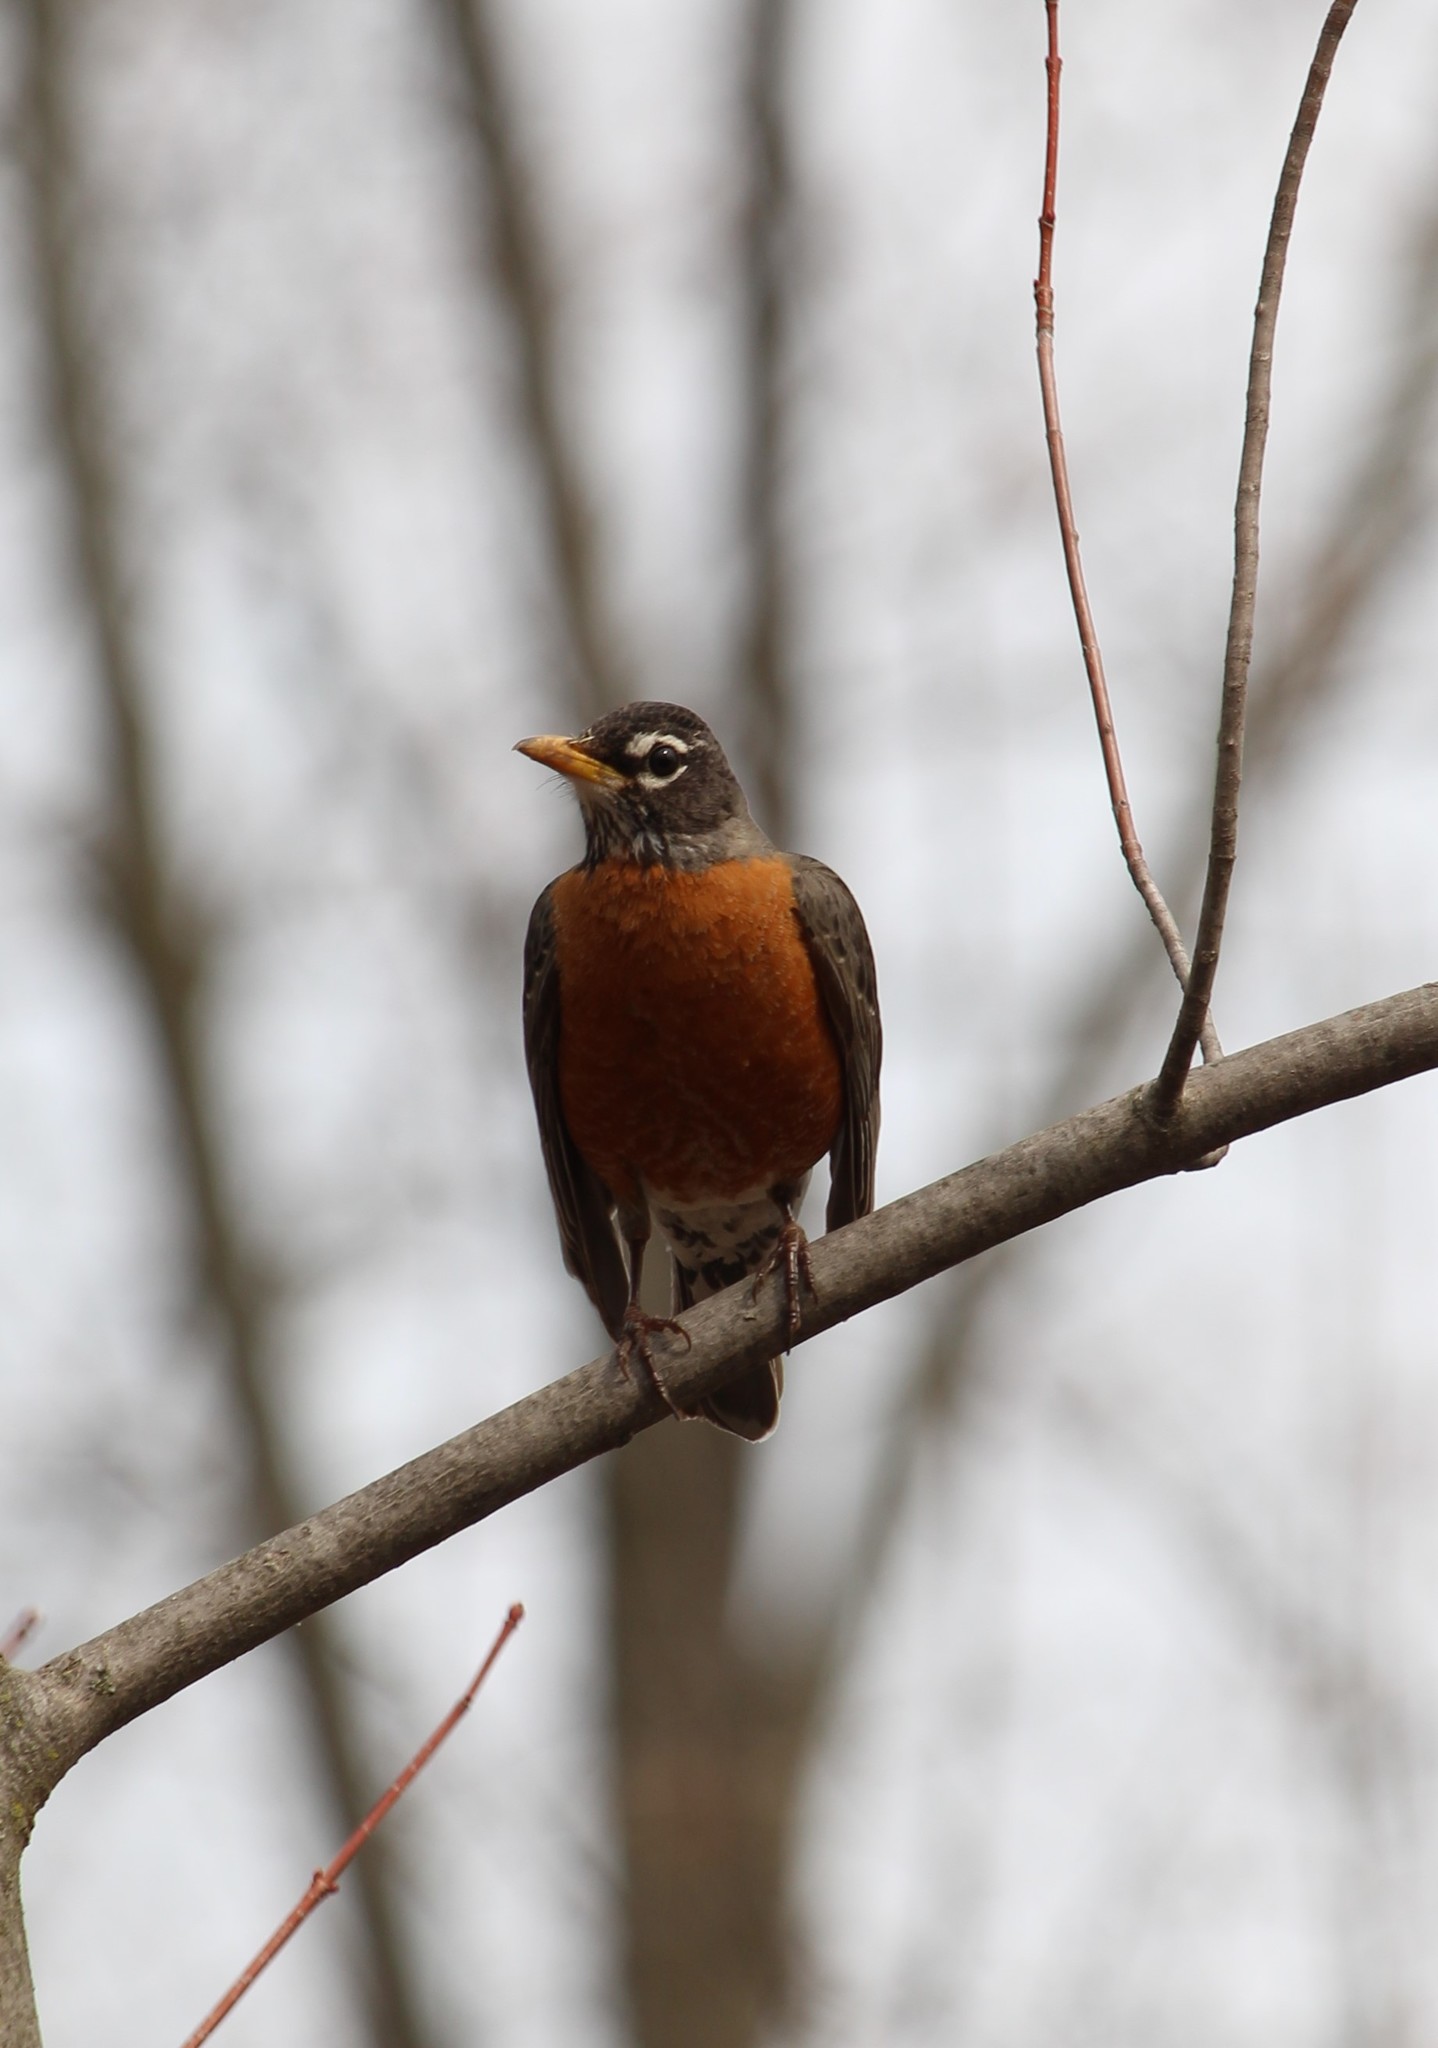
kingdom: Animalia
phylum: Chordata
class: Aves
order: Passeriformes
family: Turdidae
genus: Turdus
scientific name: Turdus migratorius
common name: American robin
